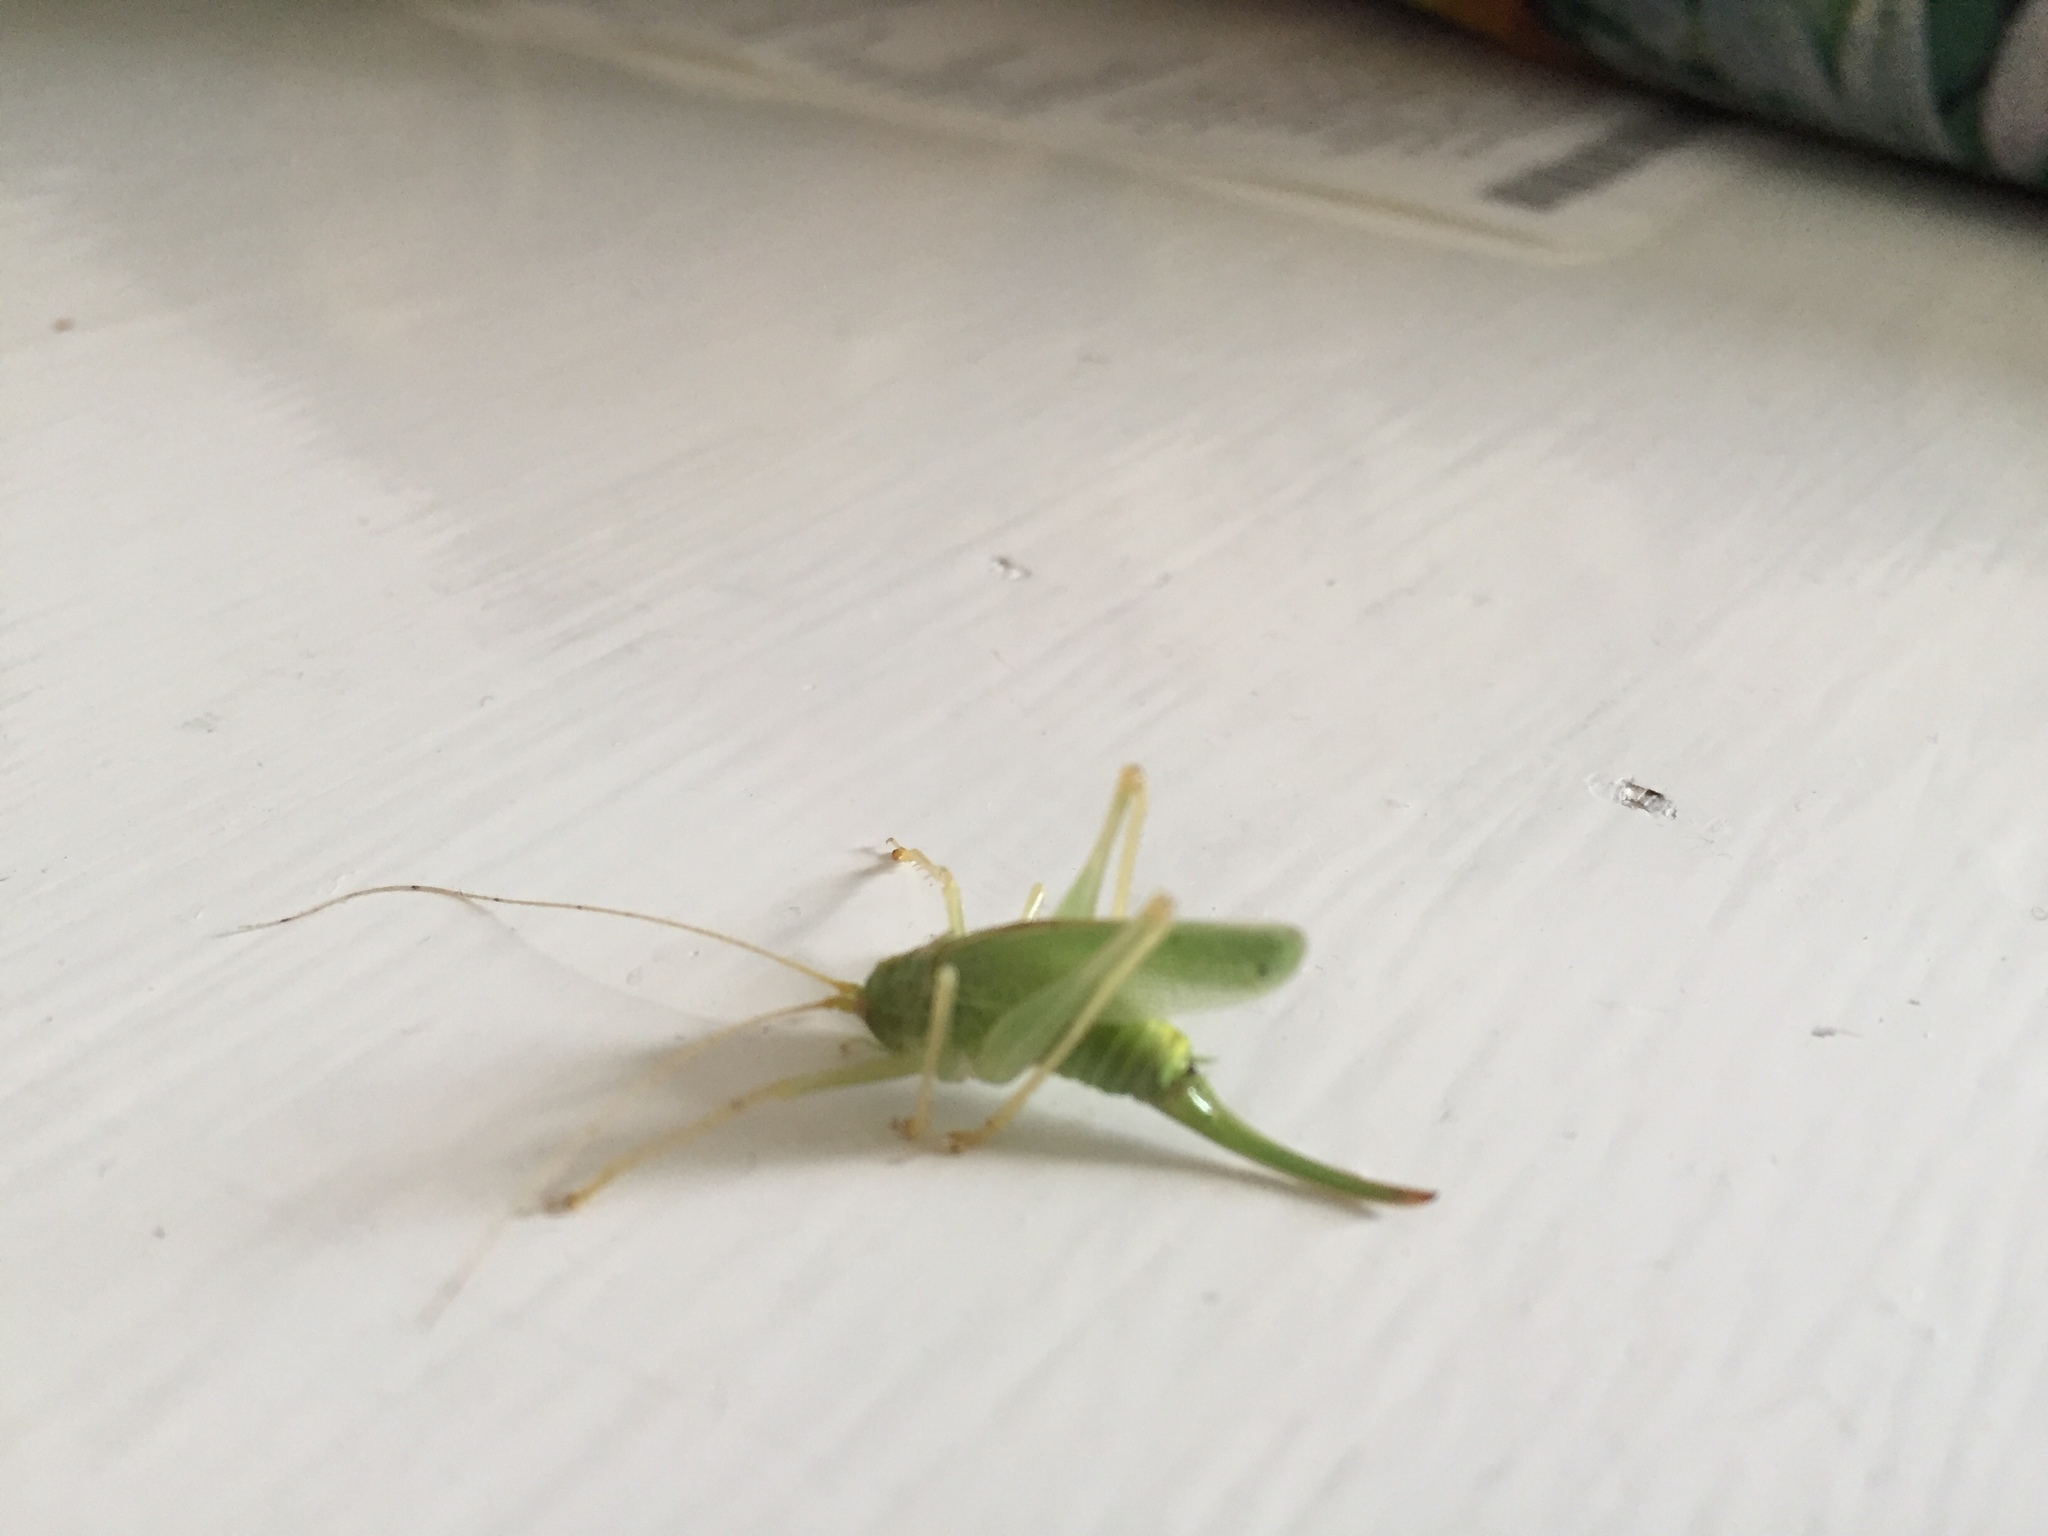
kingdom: Animalia
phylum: Arthropoda
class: Insecta
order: Orthoptera
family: Tettigoniidae
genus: Meconema
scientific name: Meconema thalassinum
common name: Oak bush-cricket
